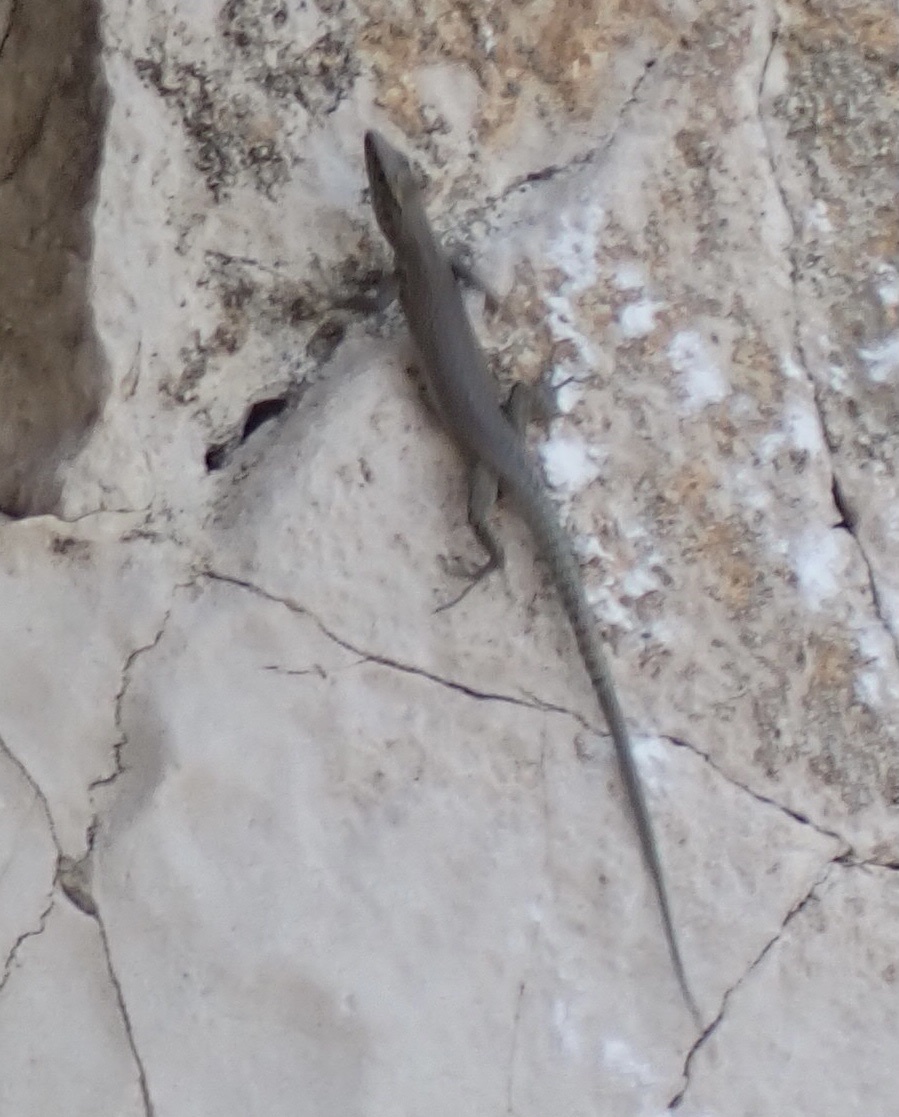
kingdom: Animalia
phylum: Chordata
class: Squamata
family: Lacertidae
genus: Dalmatolacerta
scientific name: Dalmatolacerta oxycephala
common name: Sharp-snouted rock lizard
